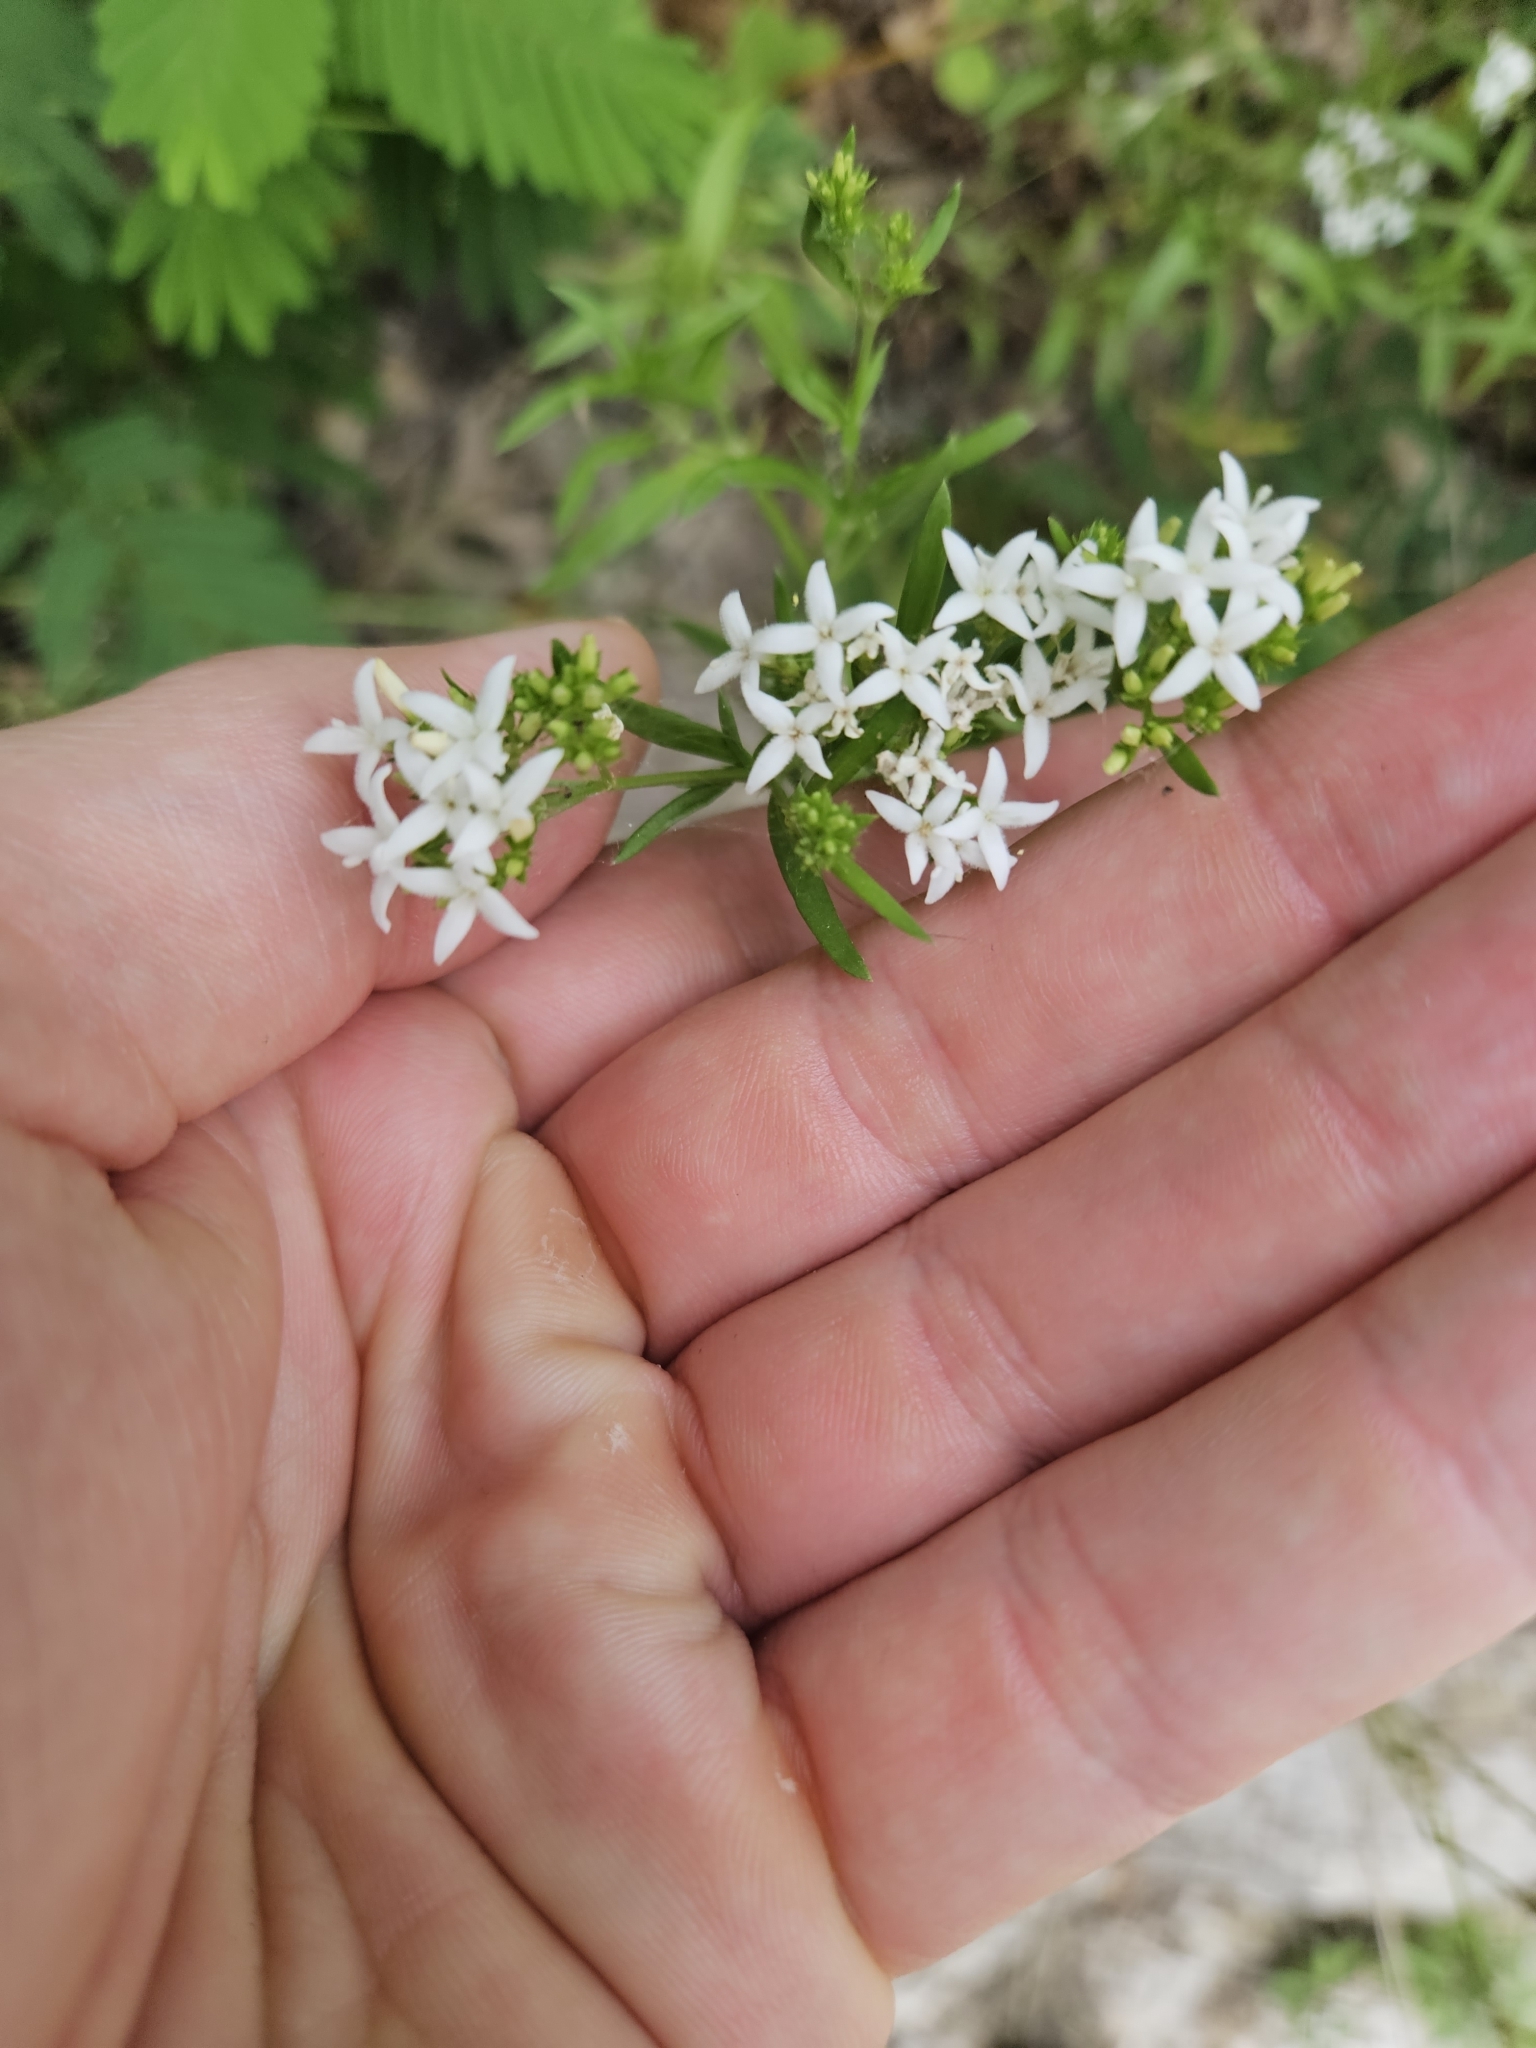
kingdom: Plantae
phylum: Tracheophyta
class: Magnoliopsida
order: Gentianales
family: Rubiaceae
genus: Stenaria
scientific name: Stenaria nigricans
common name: Diamondflowers
